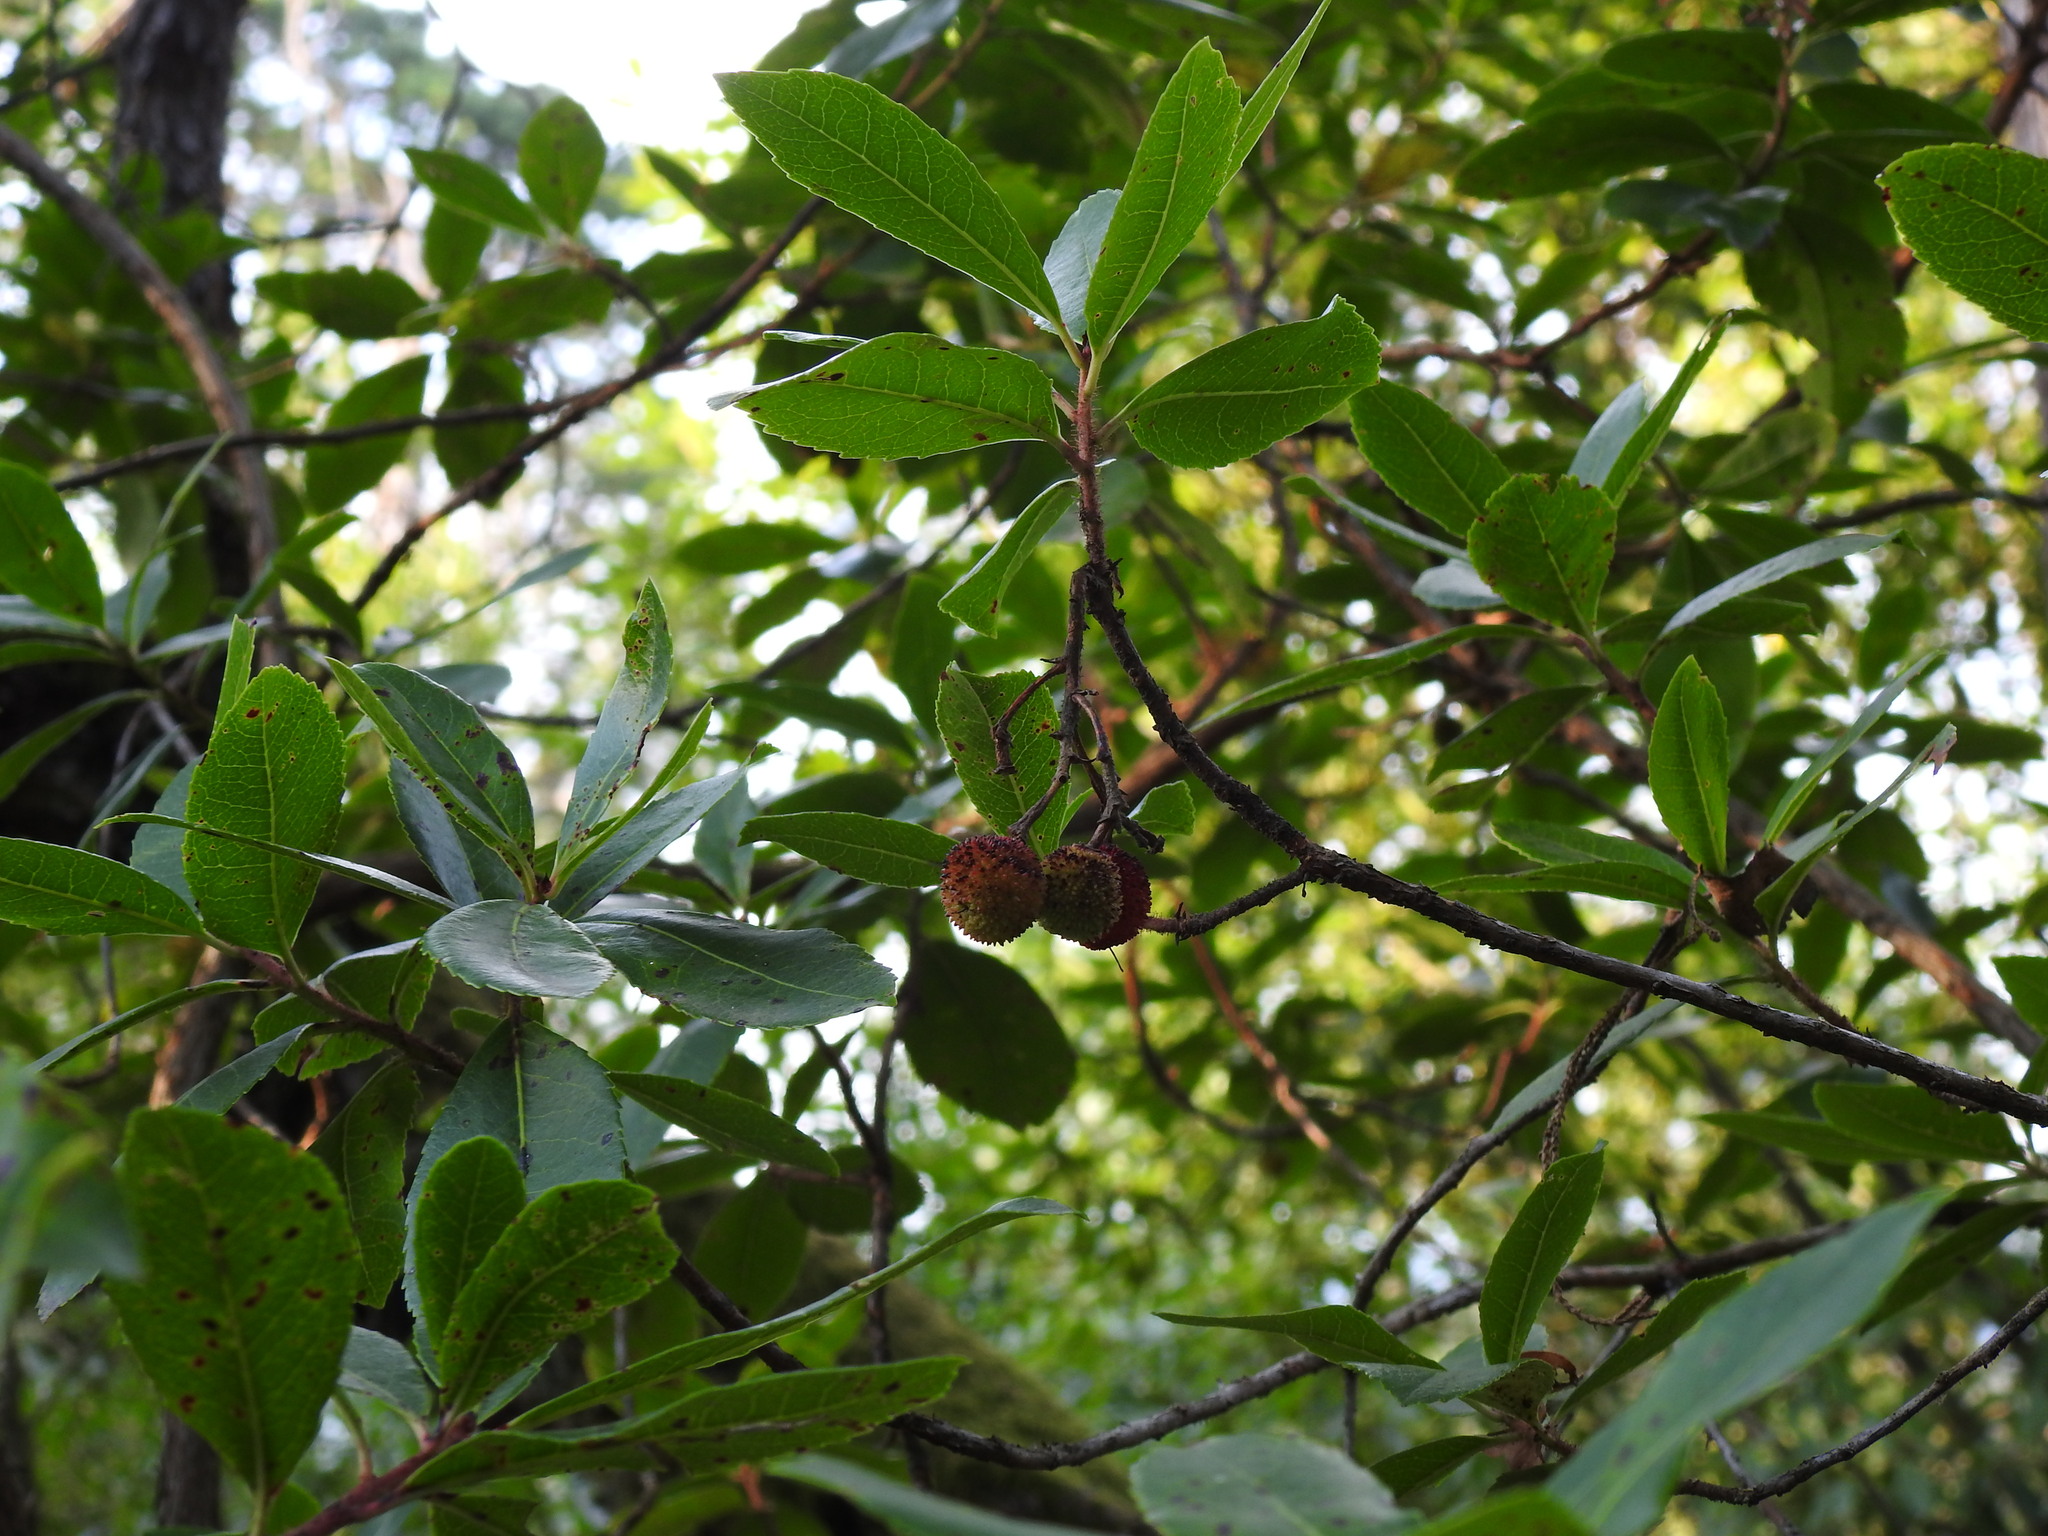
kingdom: Plantae
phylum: Tracheophyta
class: Magnoliopsida
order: Ericales
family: Ericaceae
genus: Arbutus
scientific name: Arbutus unedo
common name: Strawberry-tree
